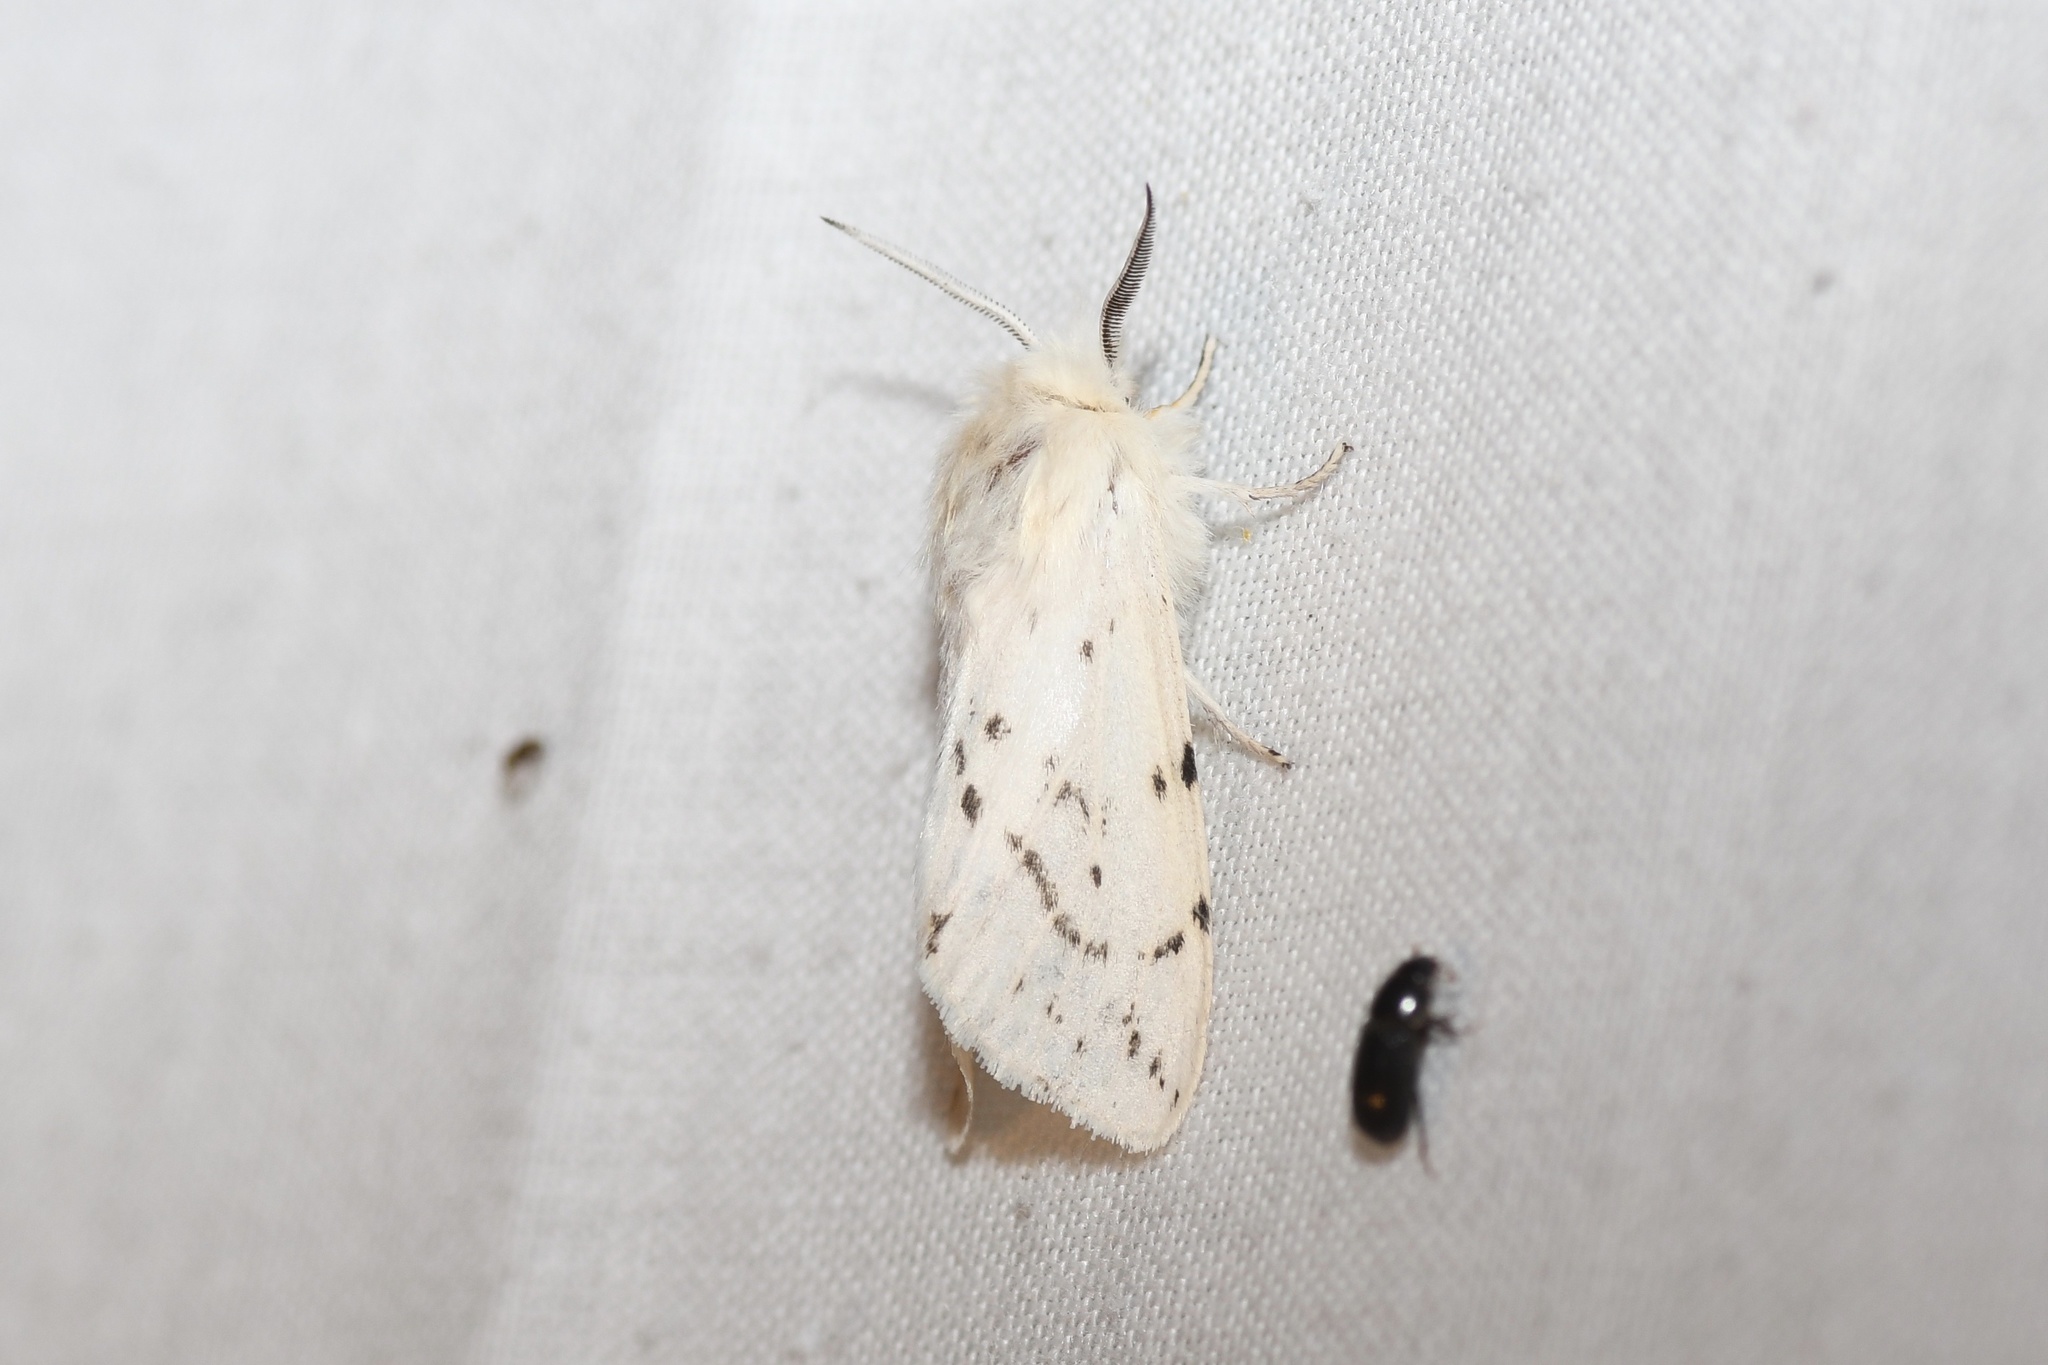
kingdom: Animalia
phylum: Arthropoda
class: Insecta
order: Lepidoptera
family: Erebidae
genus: Spilosoma
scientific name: Spilosoma congrua
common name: Agreeable tiger moth
